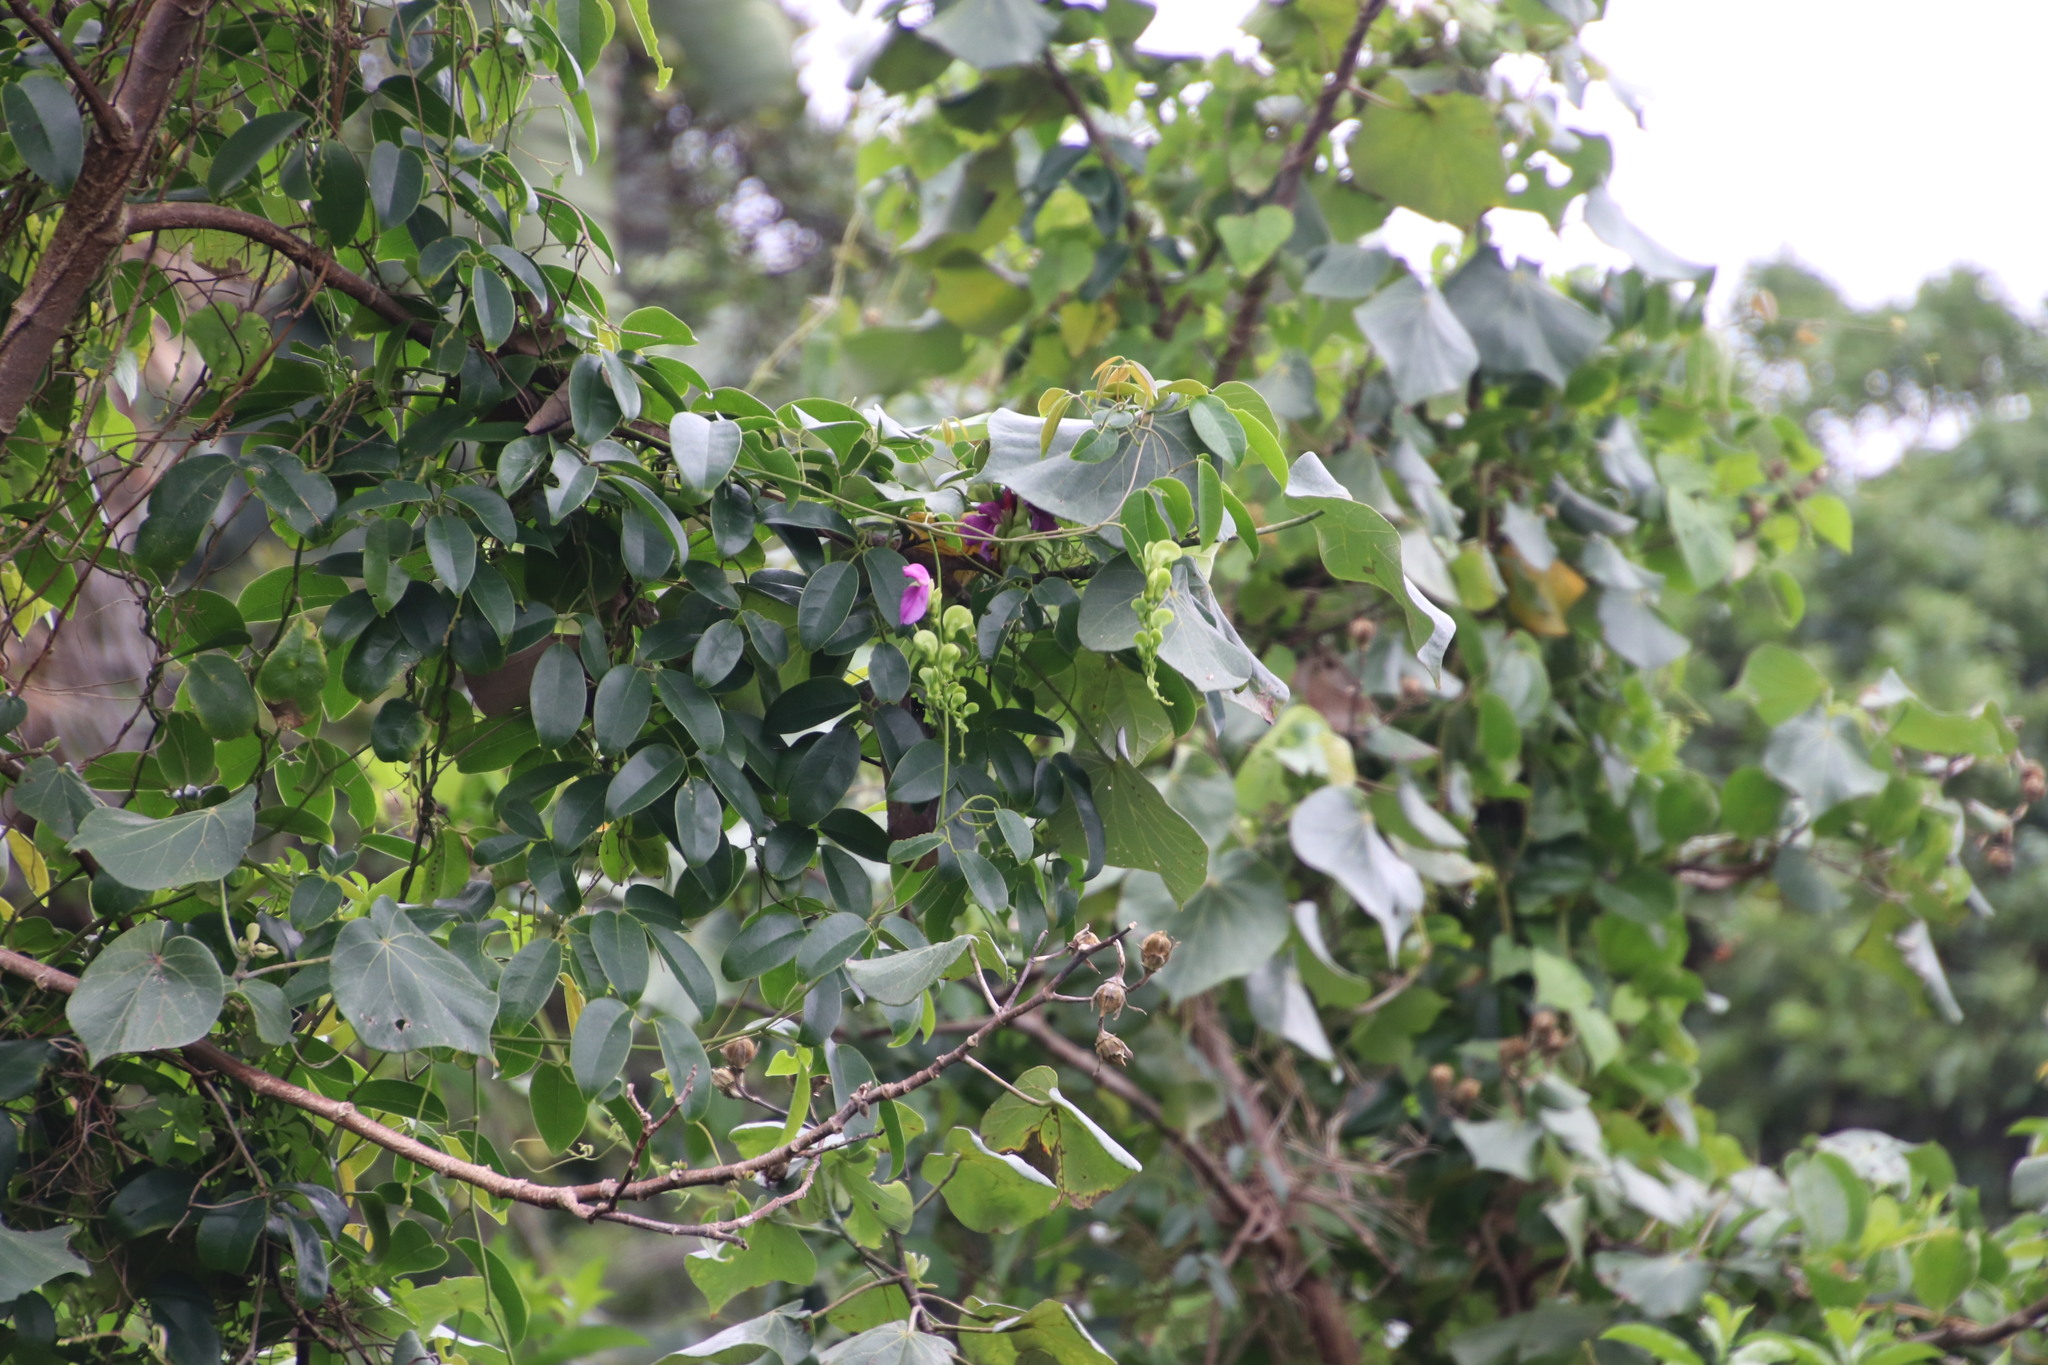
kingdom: Plantae
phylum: Tracheophyta
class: Magnoliopsida
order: Fabales
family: Fabaceae
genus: Canavalia
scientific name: Canavalia bonariensis
